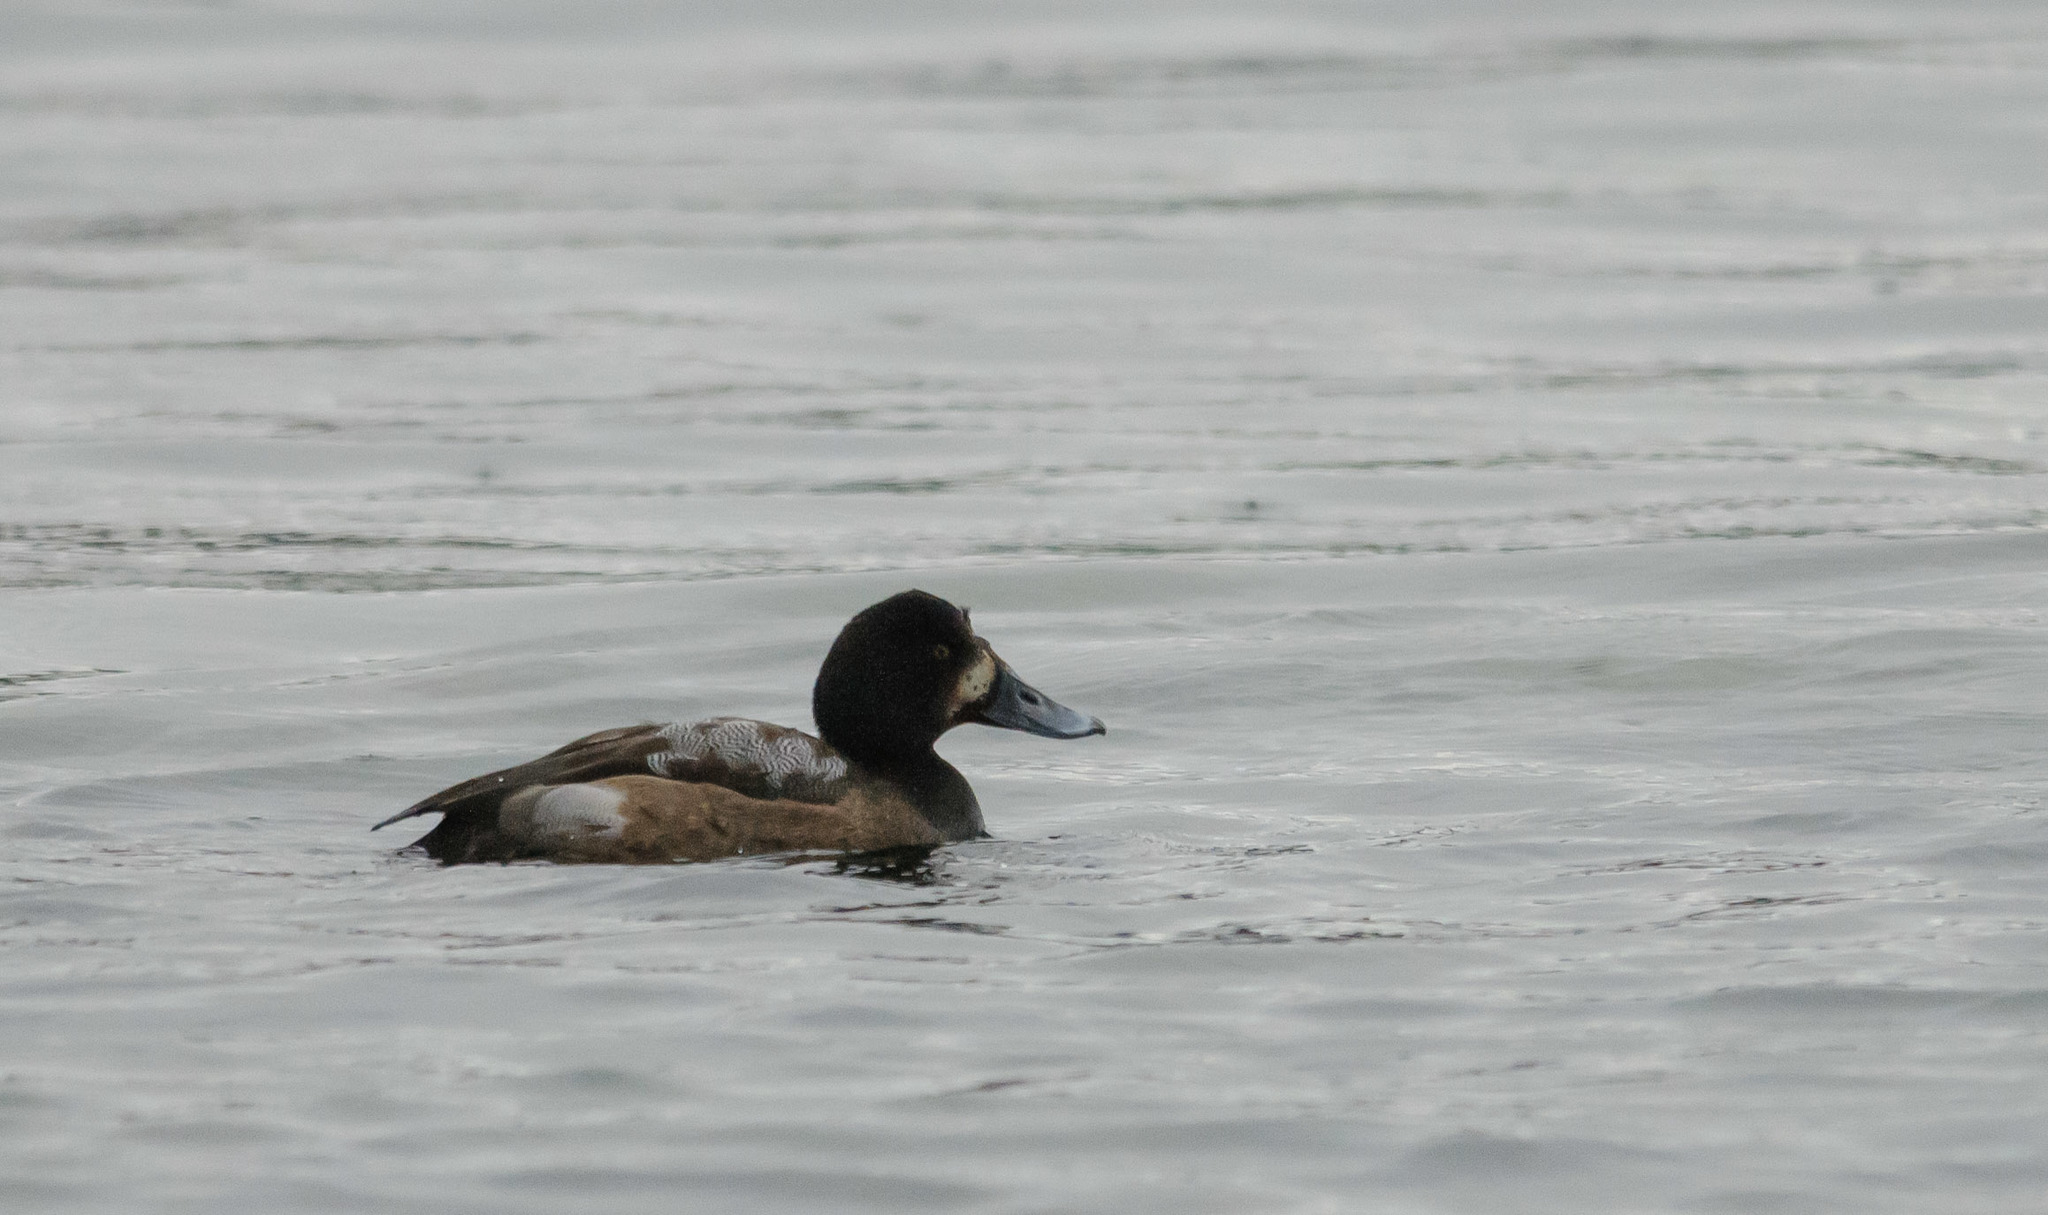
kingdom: Animalia
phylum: Chordata
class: Aves
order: Anseriformes
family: Anatidae
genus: Aythya
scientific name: Aythya marila
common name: Greater scaup
